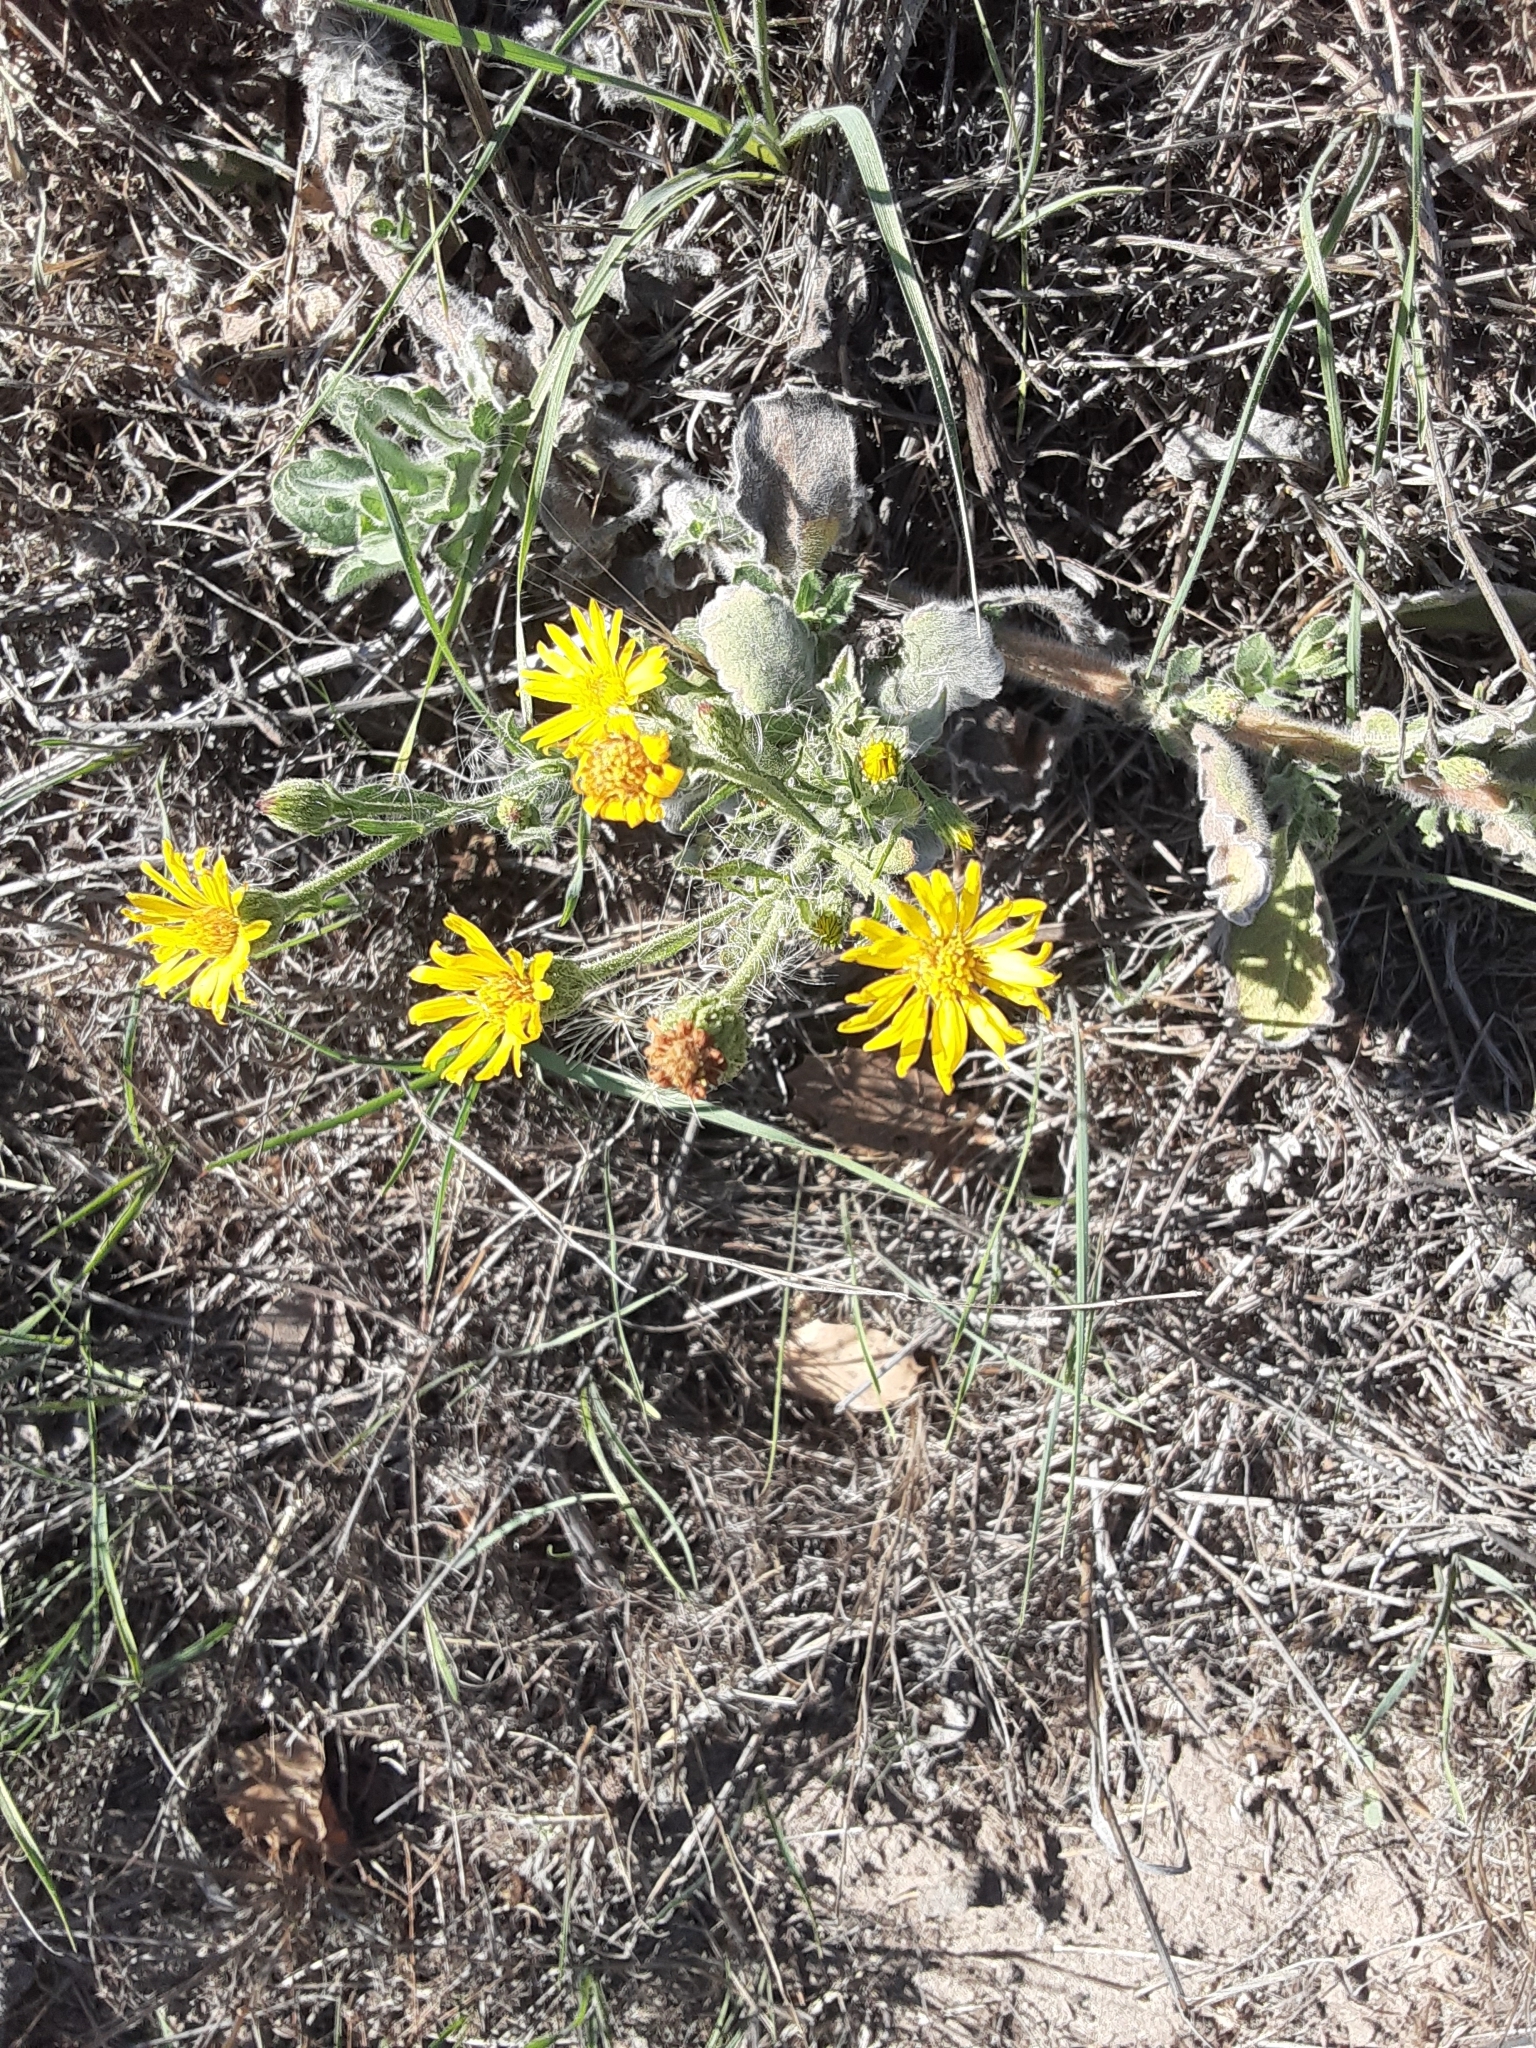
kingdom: Plantae
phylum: Tracheophyta
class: Magnoliopsida
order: Asterales
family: Asteraceae
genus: Heterotheca
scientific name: Heterotheca grandiflora
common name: Telegraphweed
